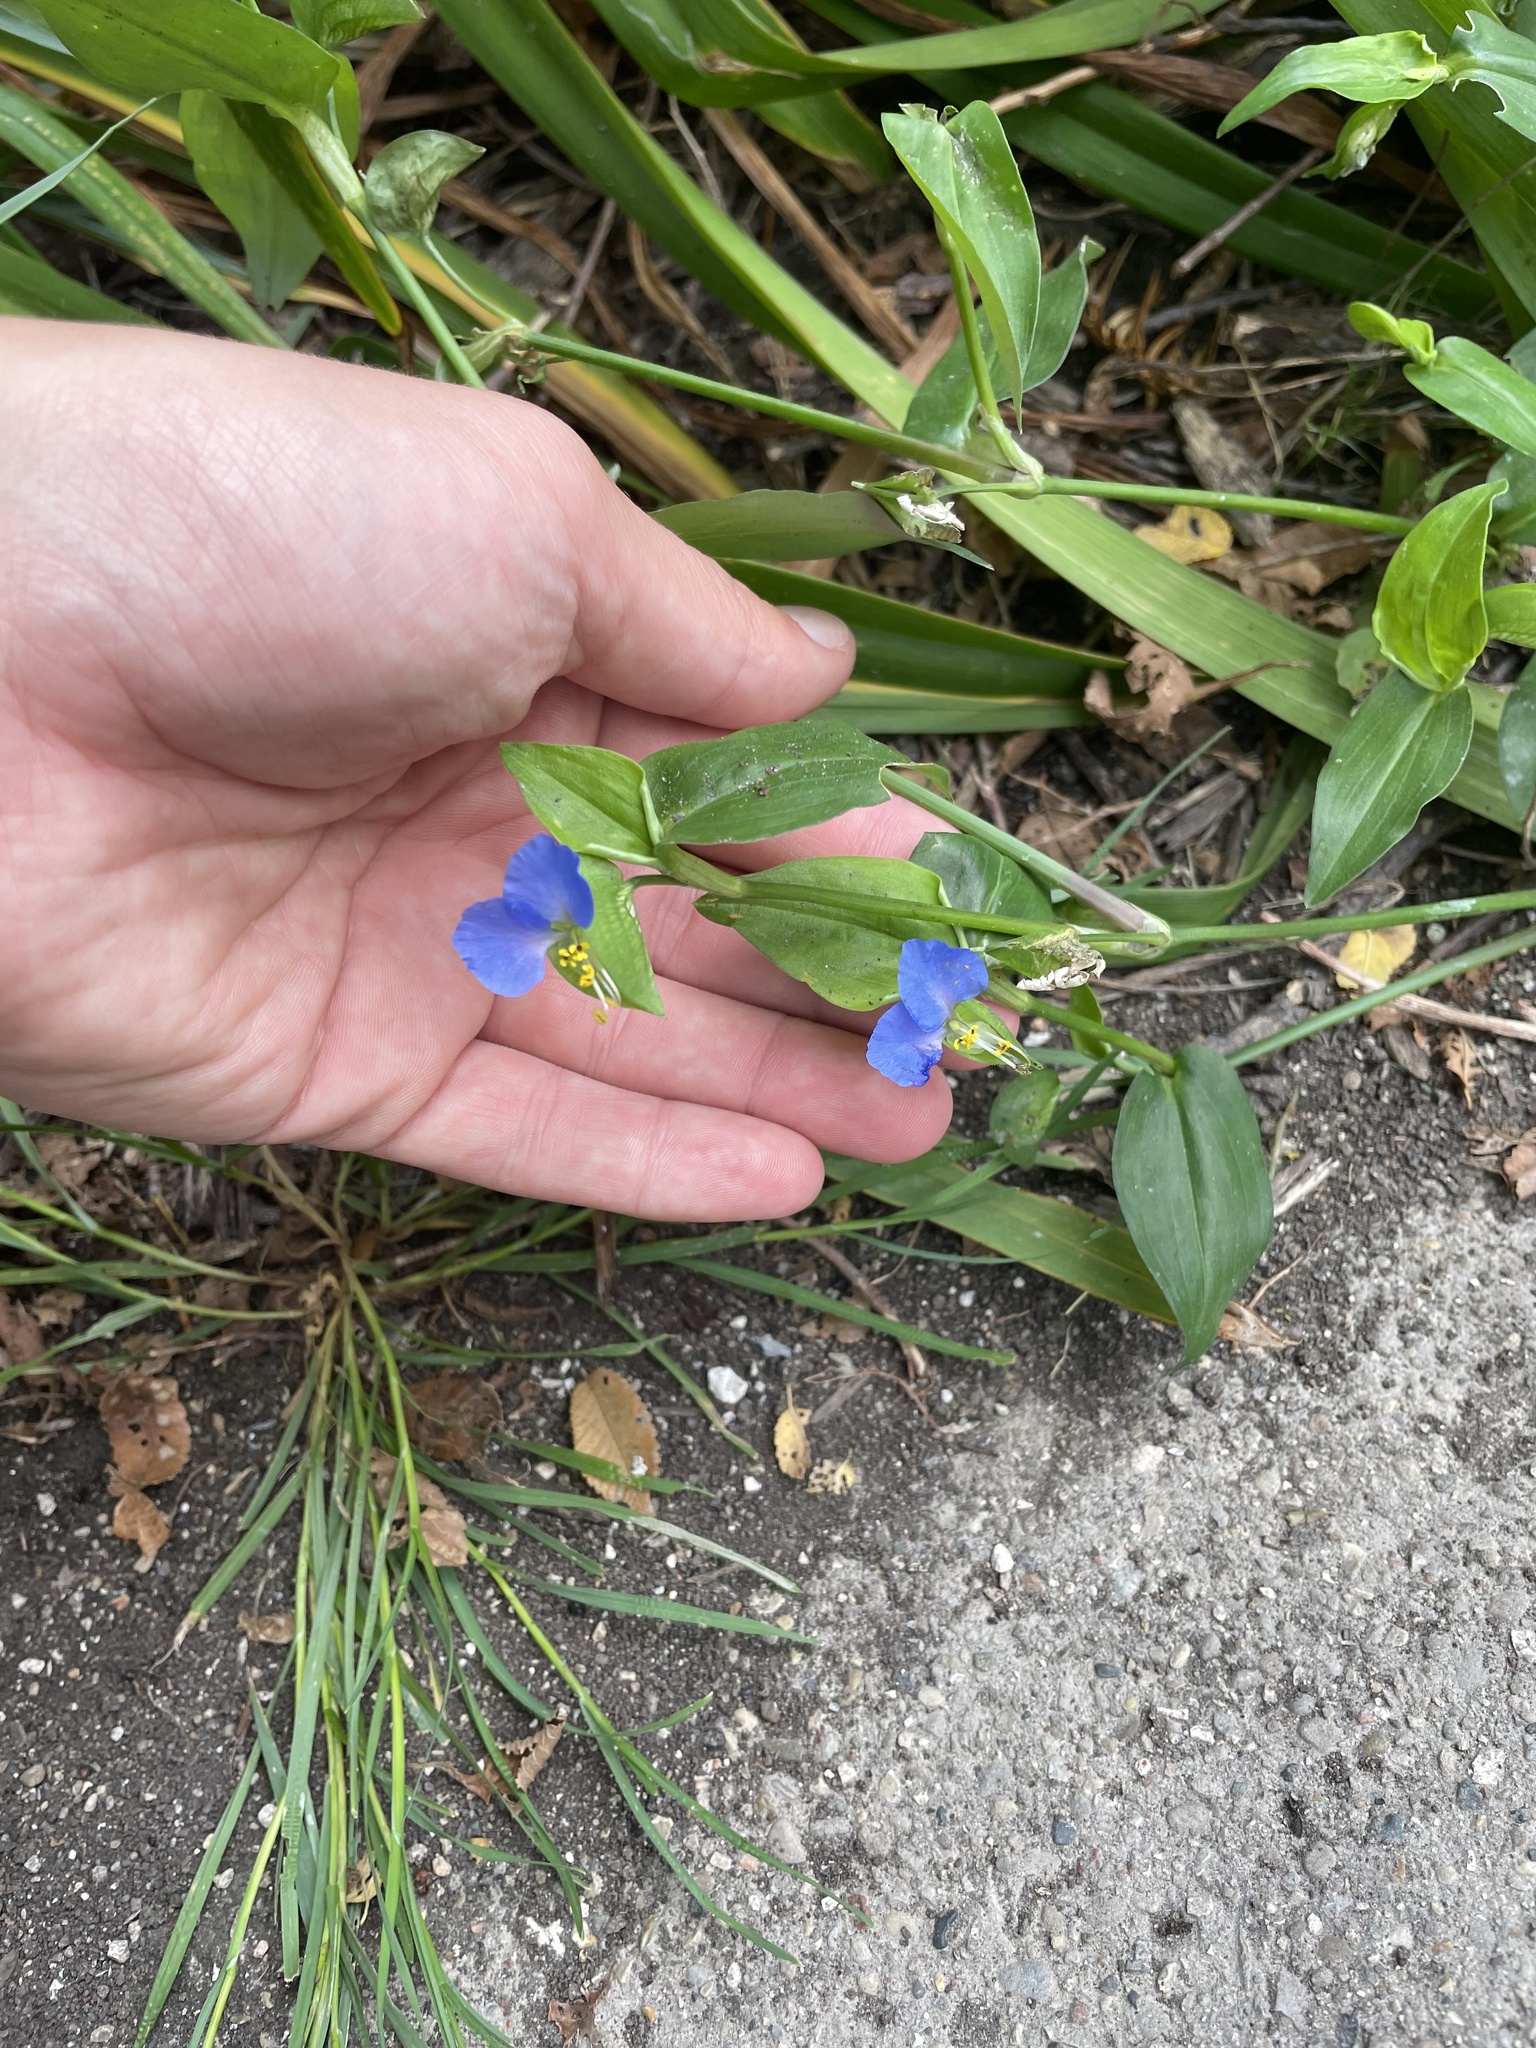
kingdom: Plantae
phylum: Tracheophyta
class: Liliopsida
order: Commelinales
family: Commelinaceae
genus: Commelina
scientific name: Commelina communis
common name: Asiatic dayflower
